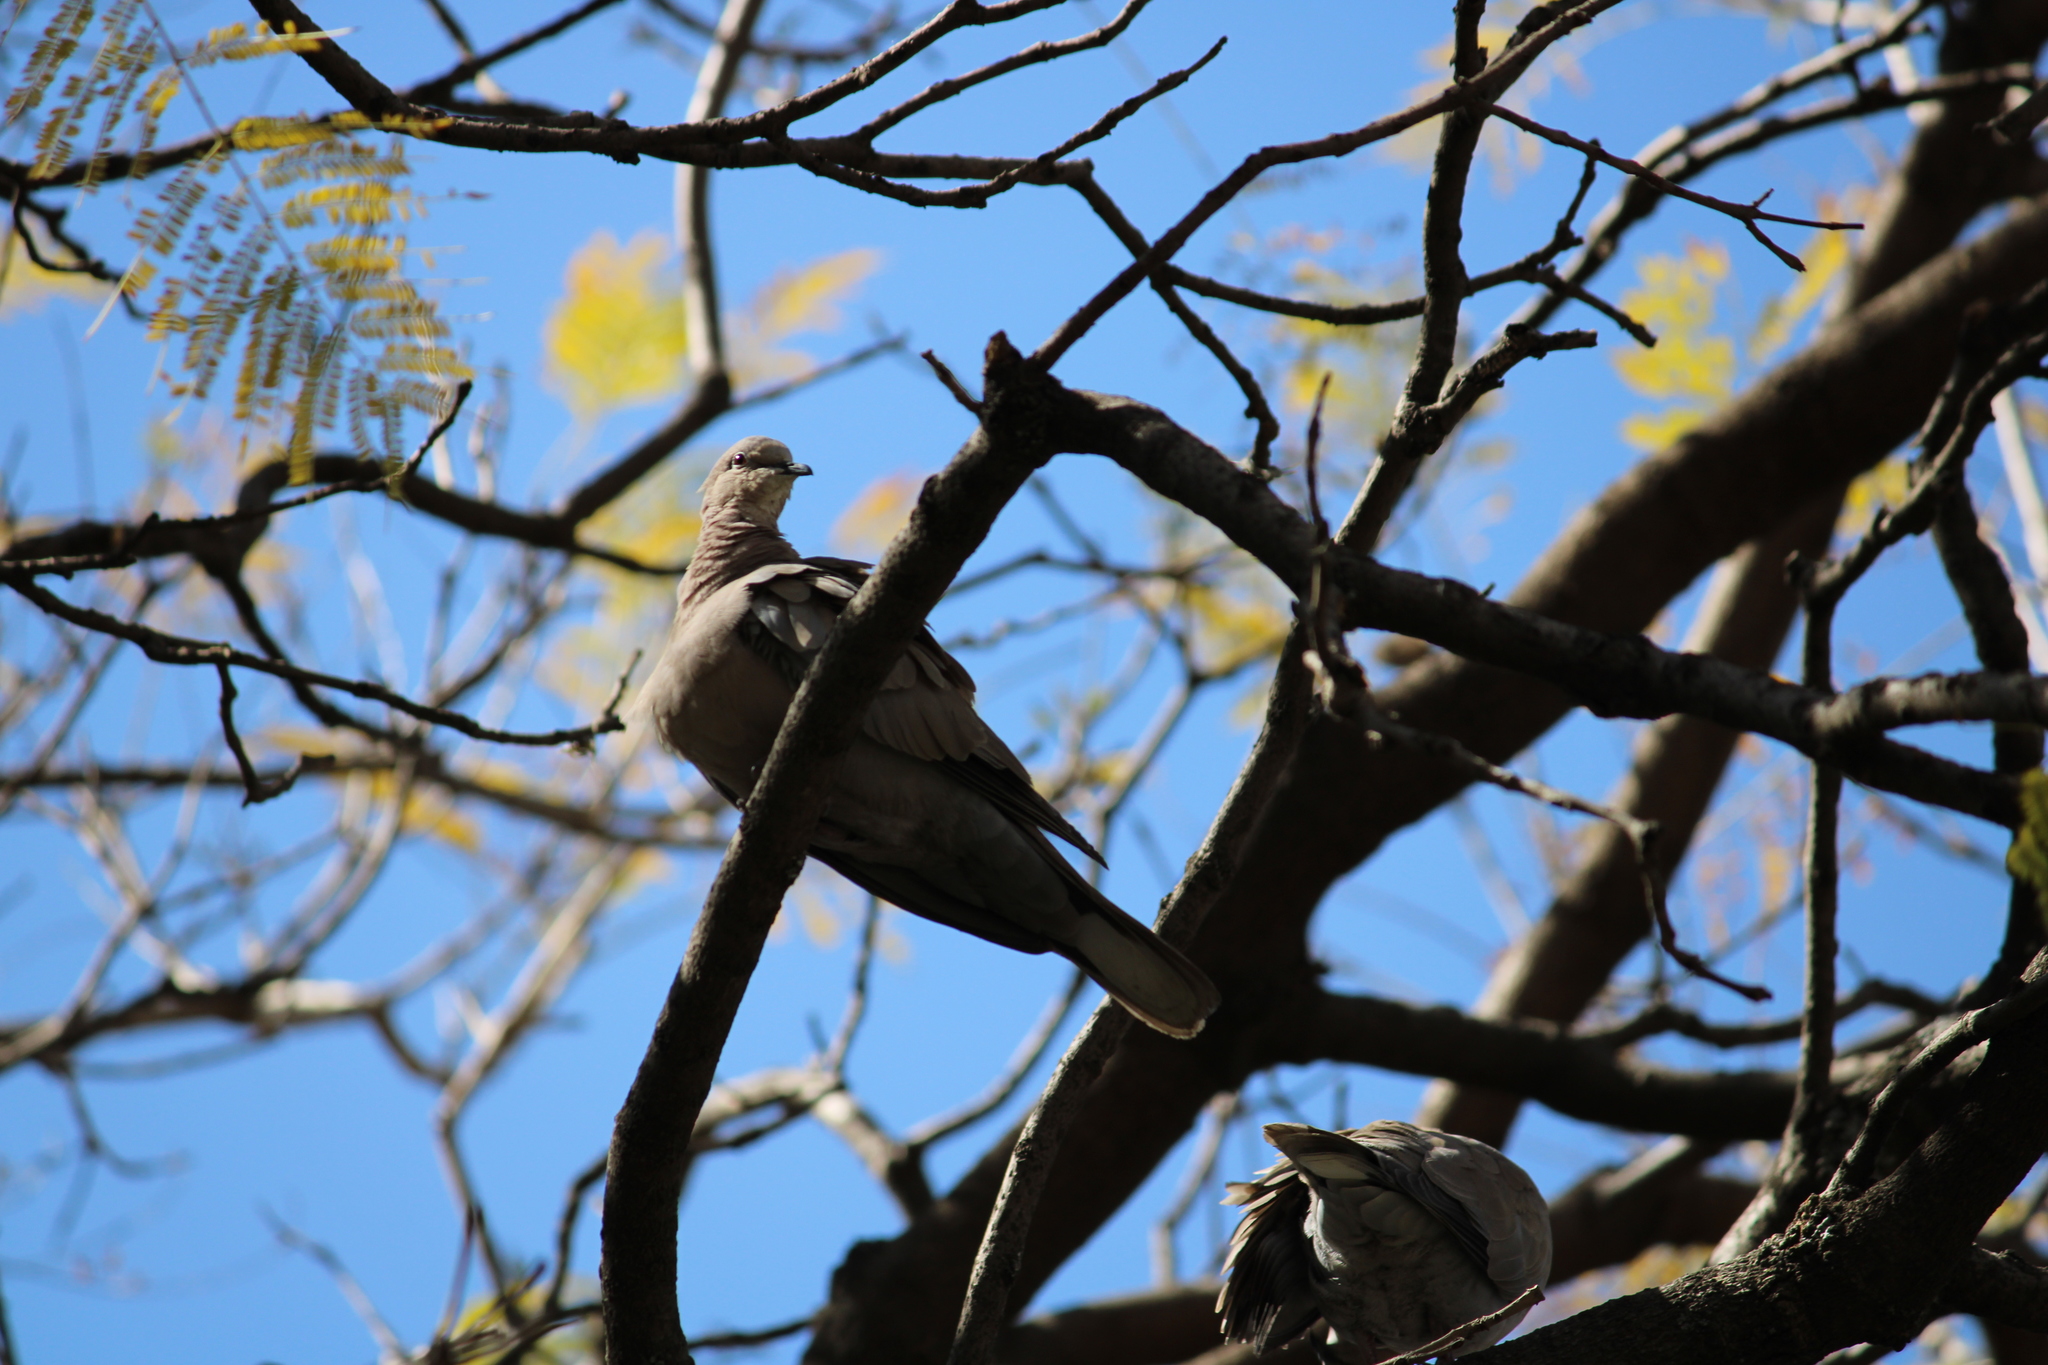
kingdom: Animalia
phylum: Chordata
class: Aves
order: Columbiformes
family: Columbidae
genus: Streptopelia
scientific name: Streptopelia decaocto
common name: Eurasian collared dove
